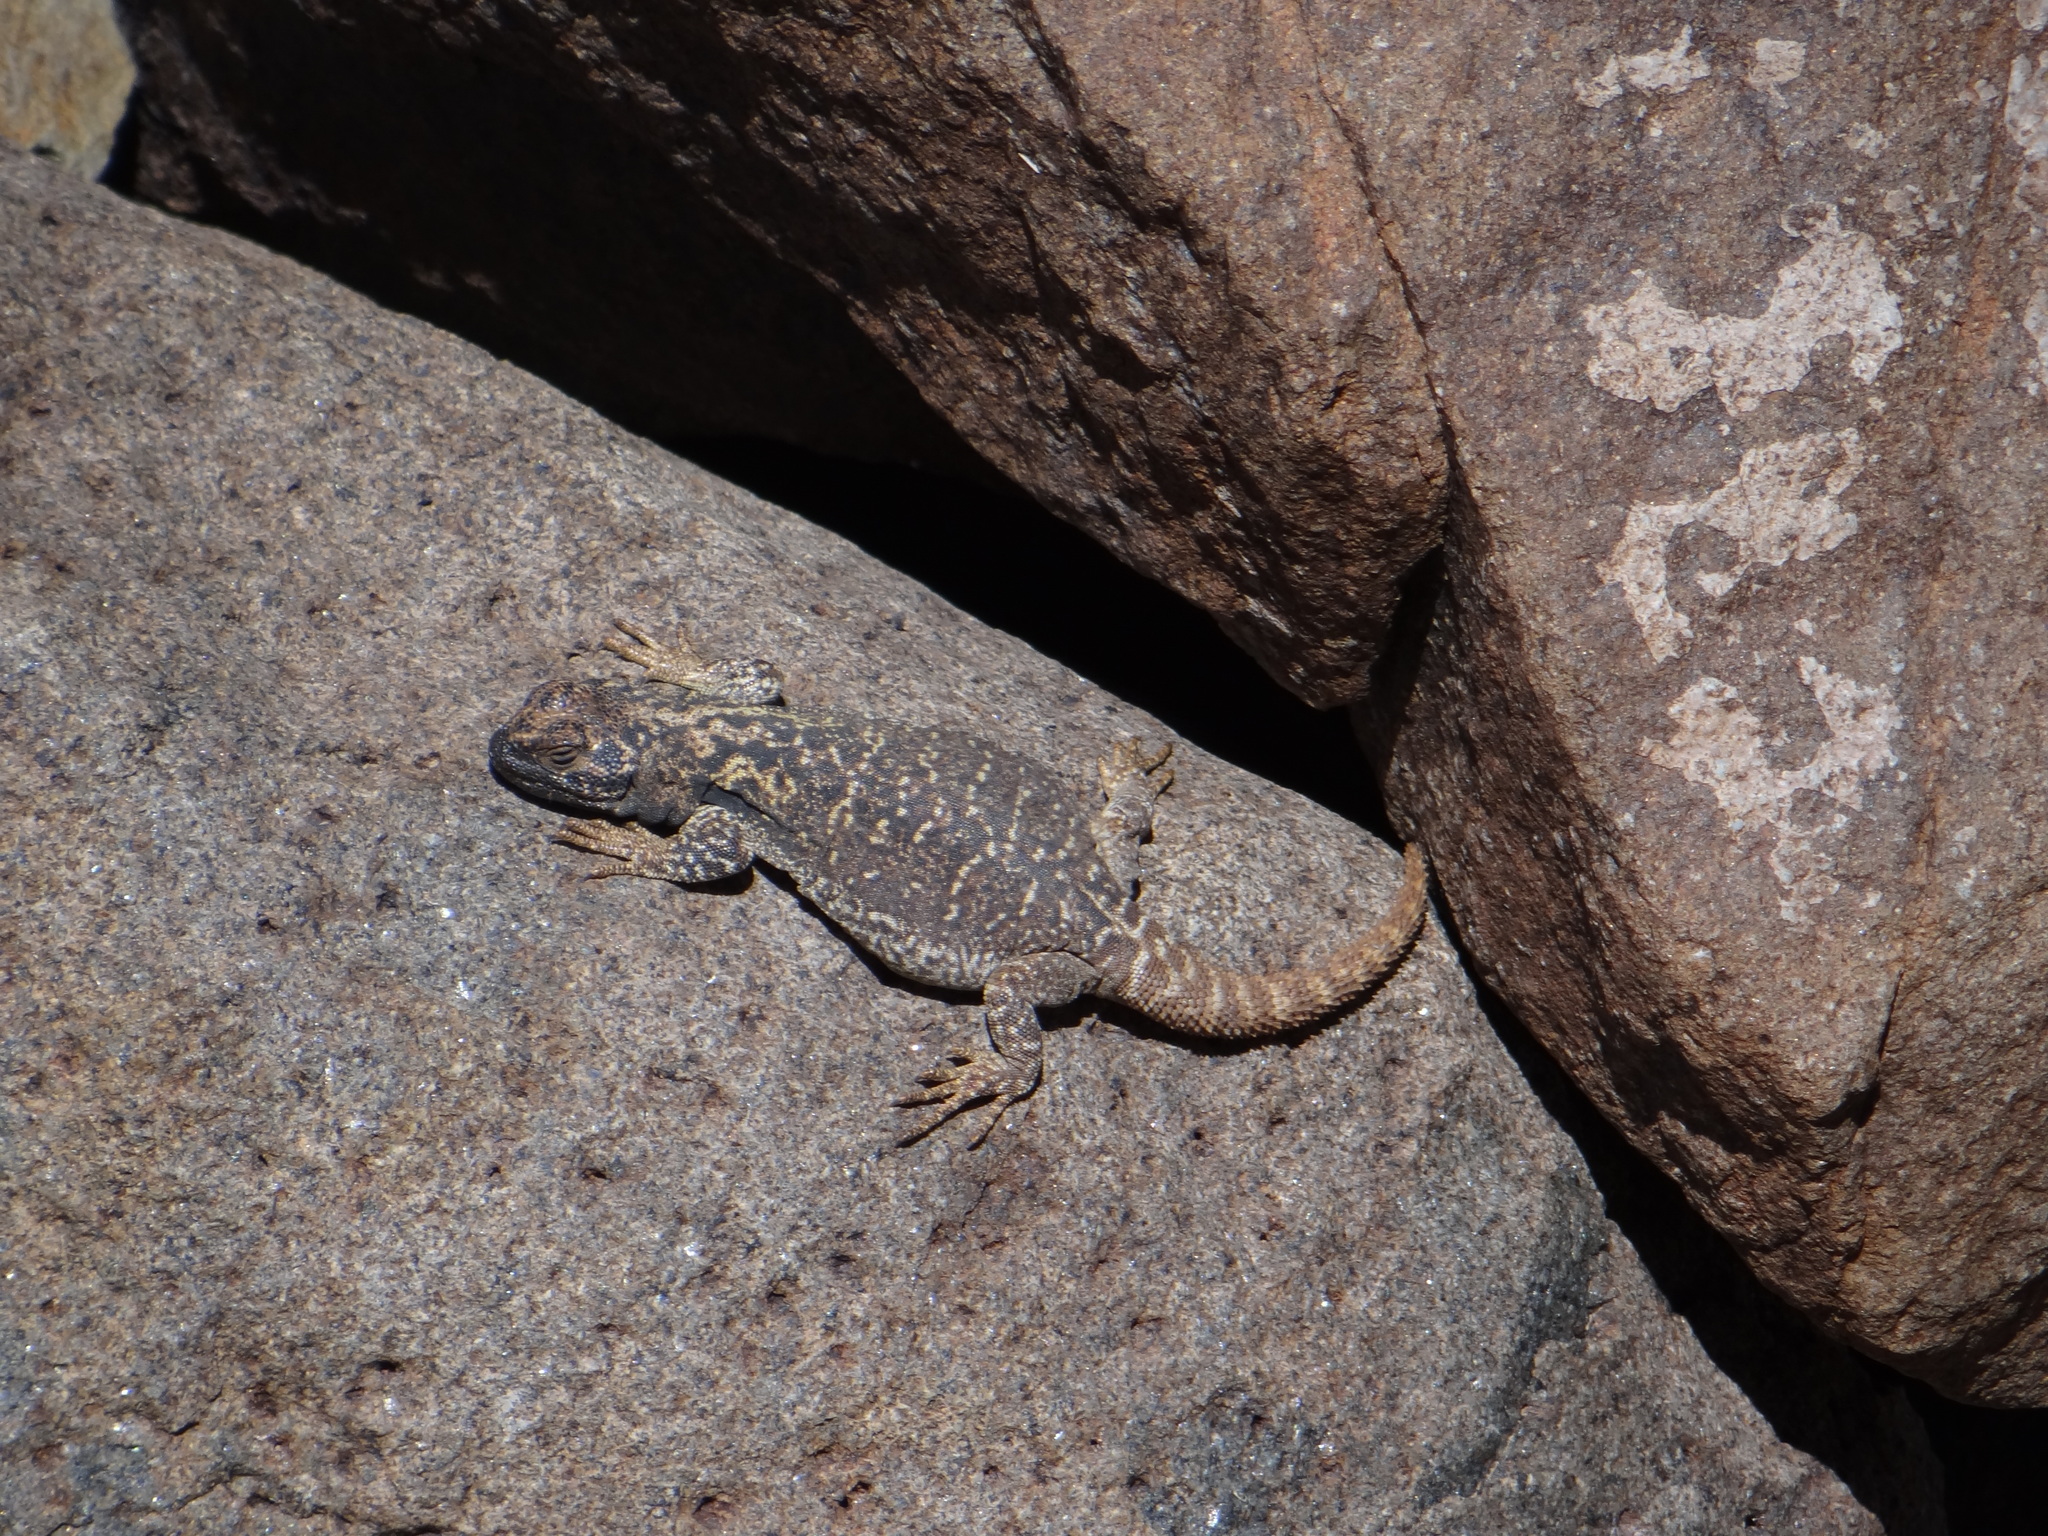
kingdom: Animalia
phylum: Chordata
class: Squamata
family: Liolaemidae
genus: Phymaturus
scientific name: Phymaturus extrilidus
